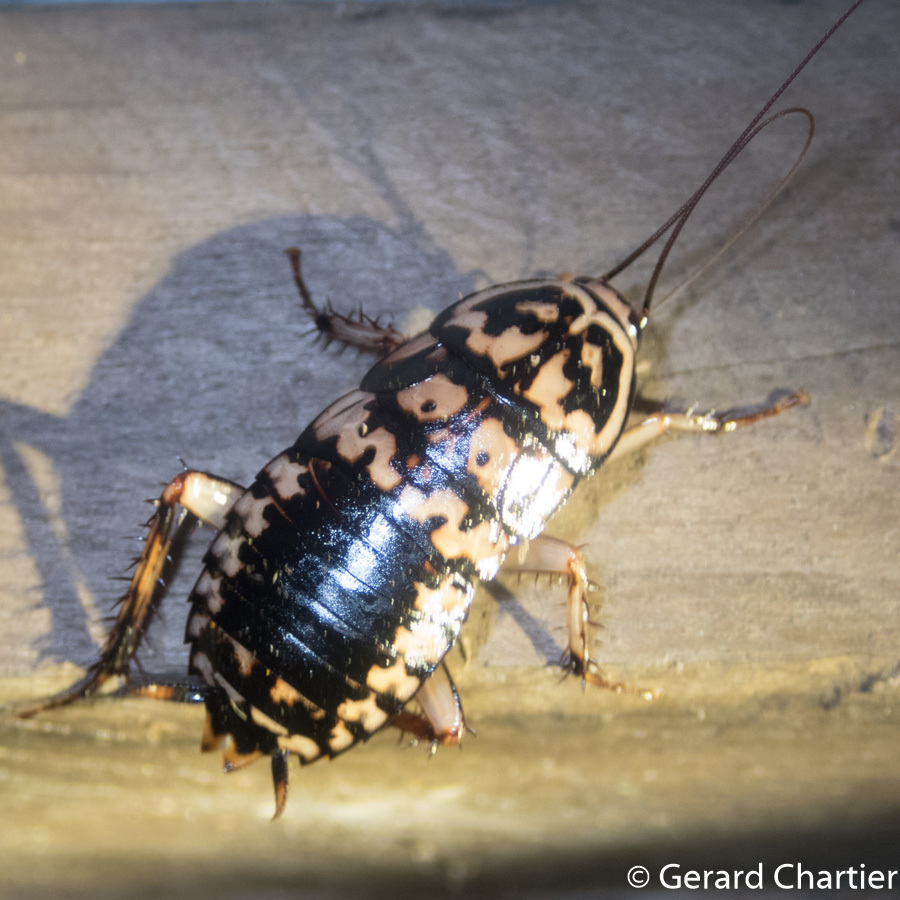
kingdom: Animalia
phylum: Arthropoda
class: Insecta
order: Blattodea
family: Blattidae
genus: Neostylopyga
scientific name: Neostylopyga rhombifolia
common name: Harlequin cockroach
